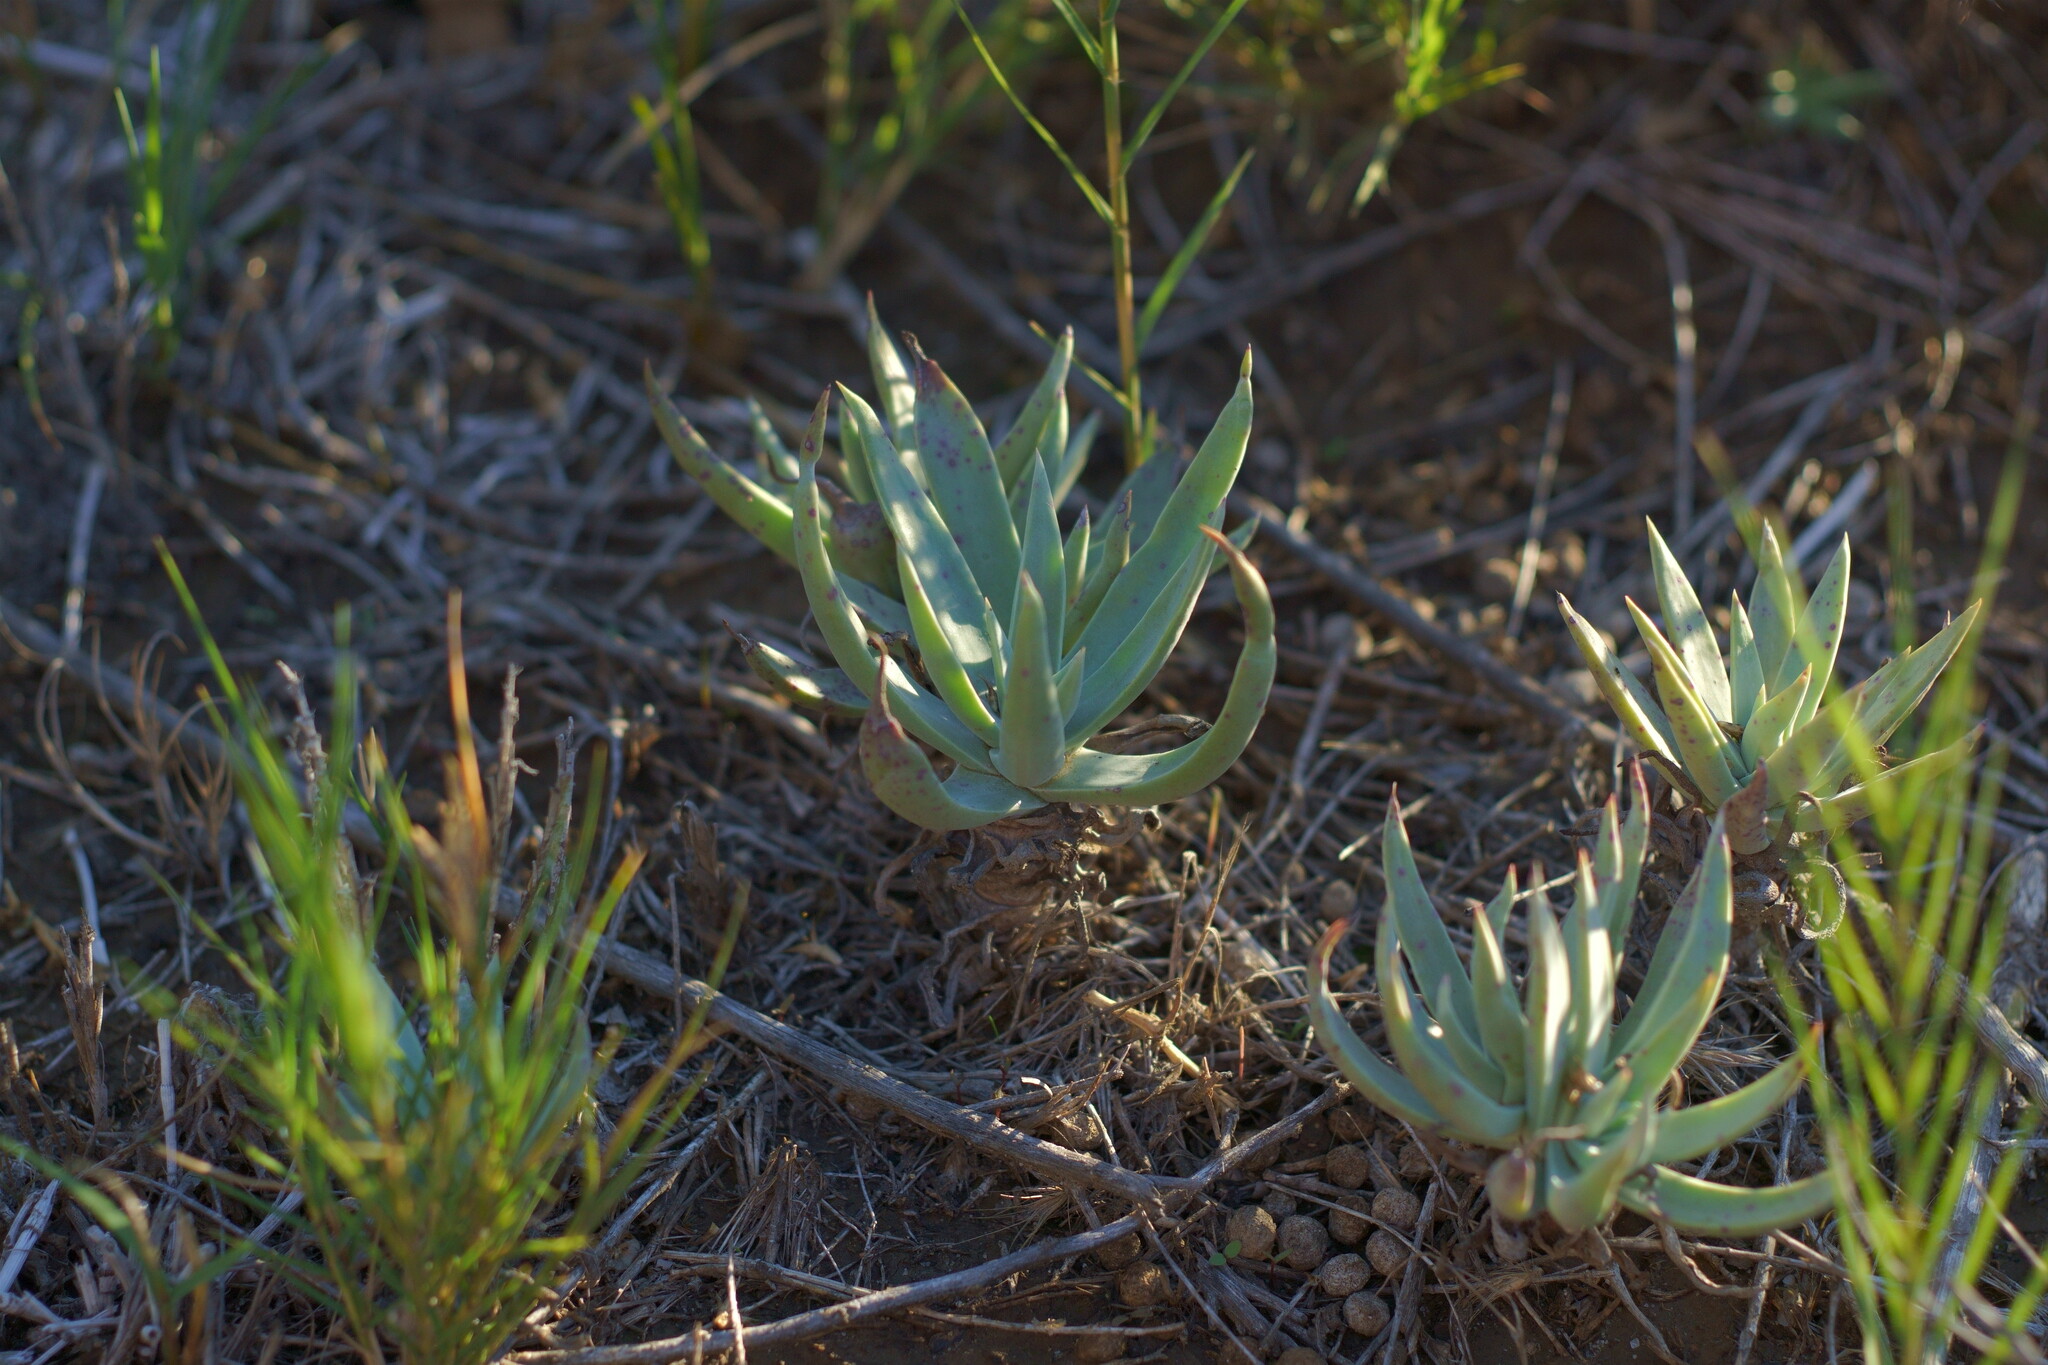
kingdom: Plantae
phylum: Tracheophyta
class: Magnoliopsida
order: Saxifragales
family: Crassulaceae
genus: Dudleya
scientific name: Dudleya caespitosa
